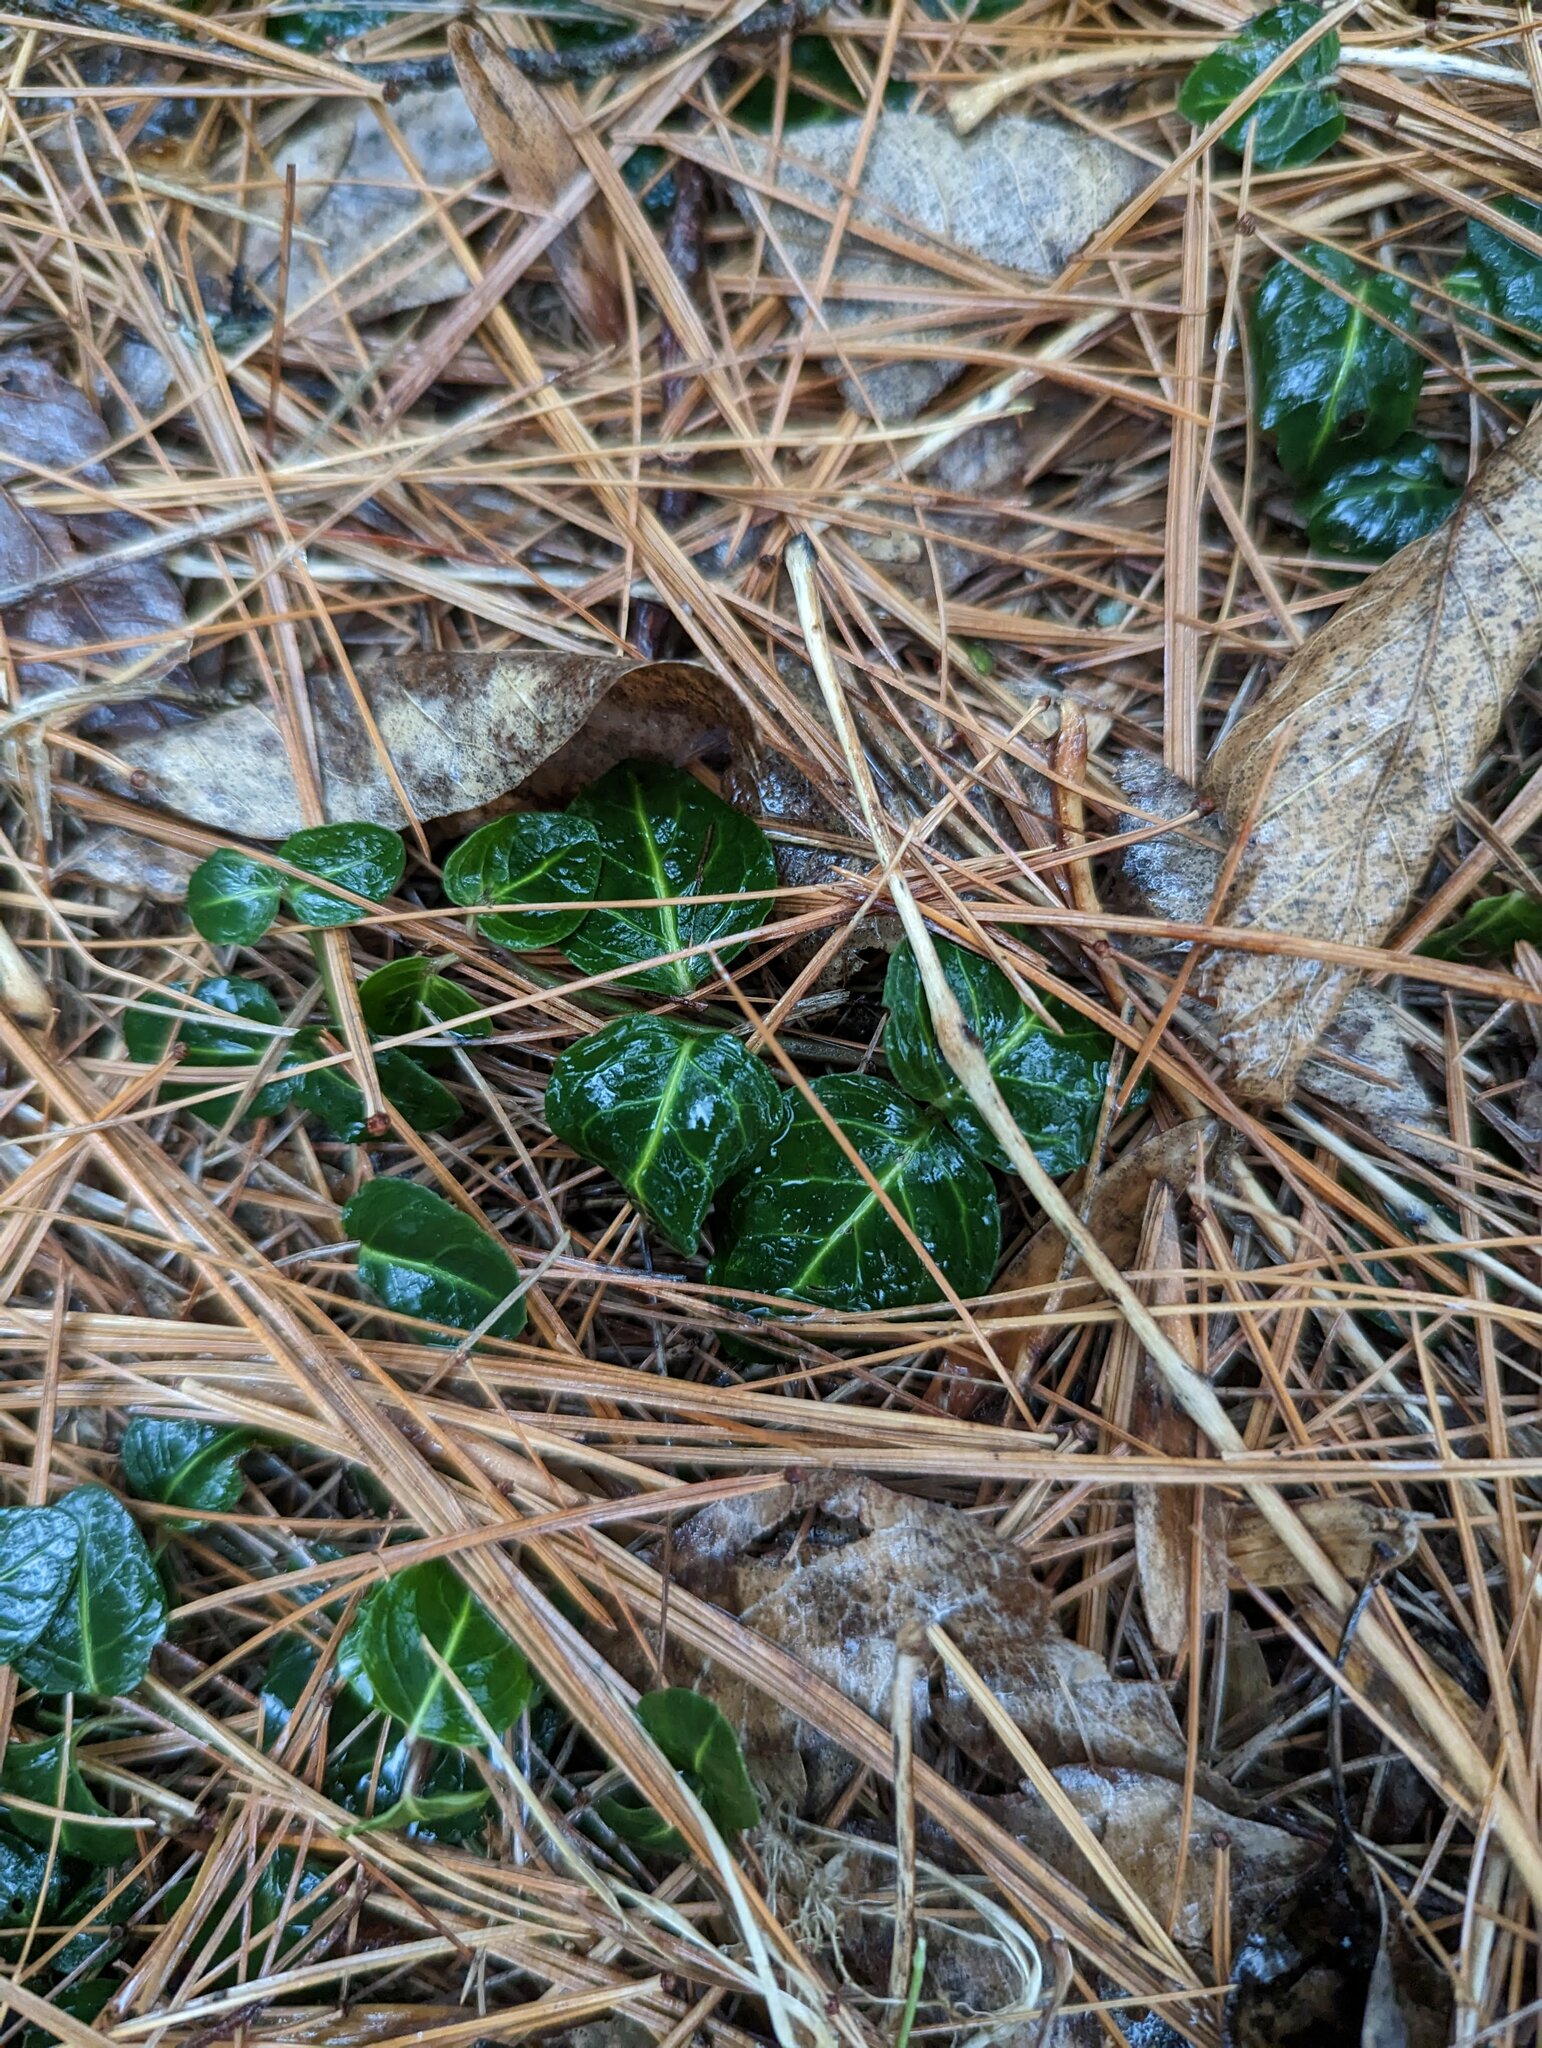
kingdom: Plantae
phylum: Tracheophyta
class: Magnoliopsida
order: Gentianales
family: Rubiaceae
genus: Mitchella
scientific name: Mitchella repens
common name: Partridge-berry
